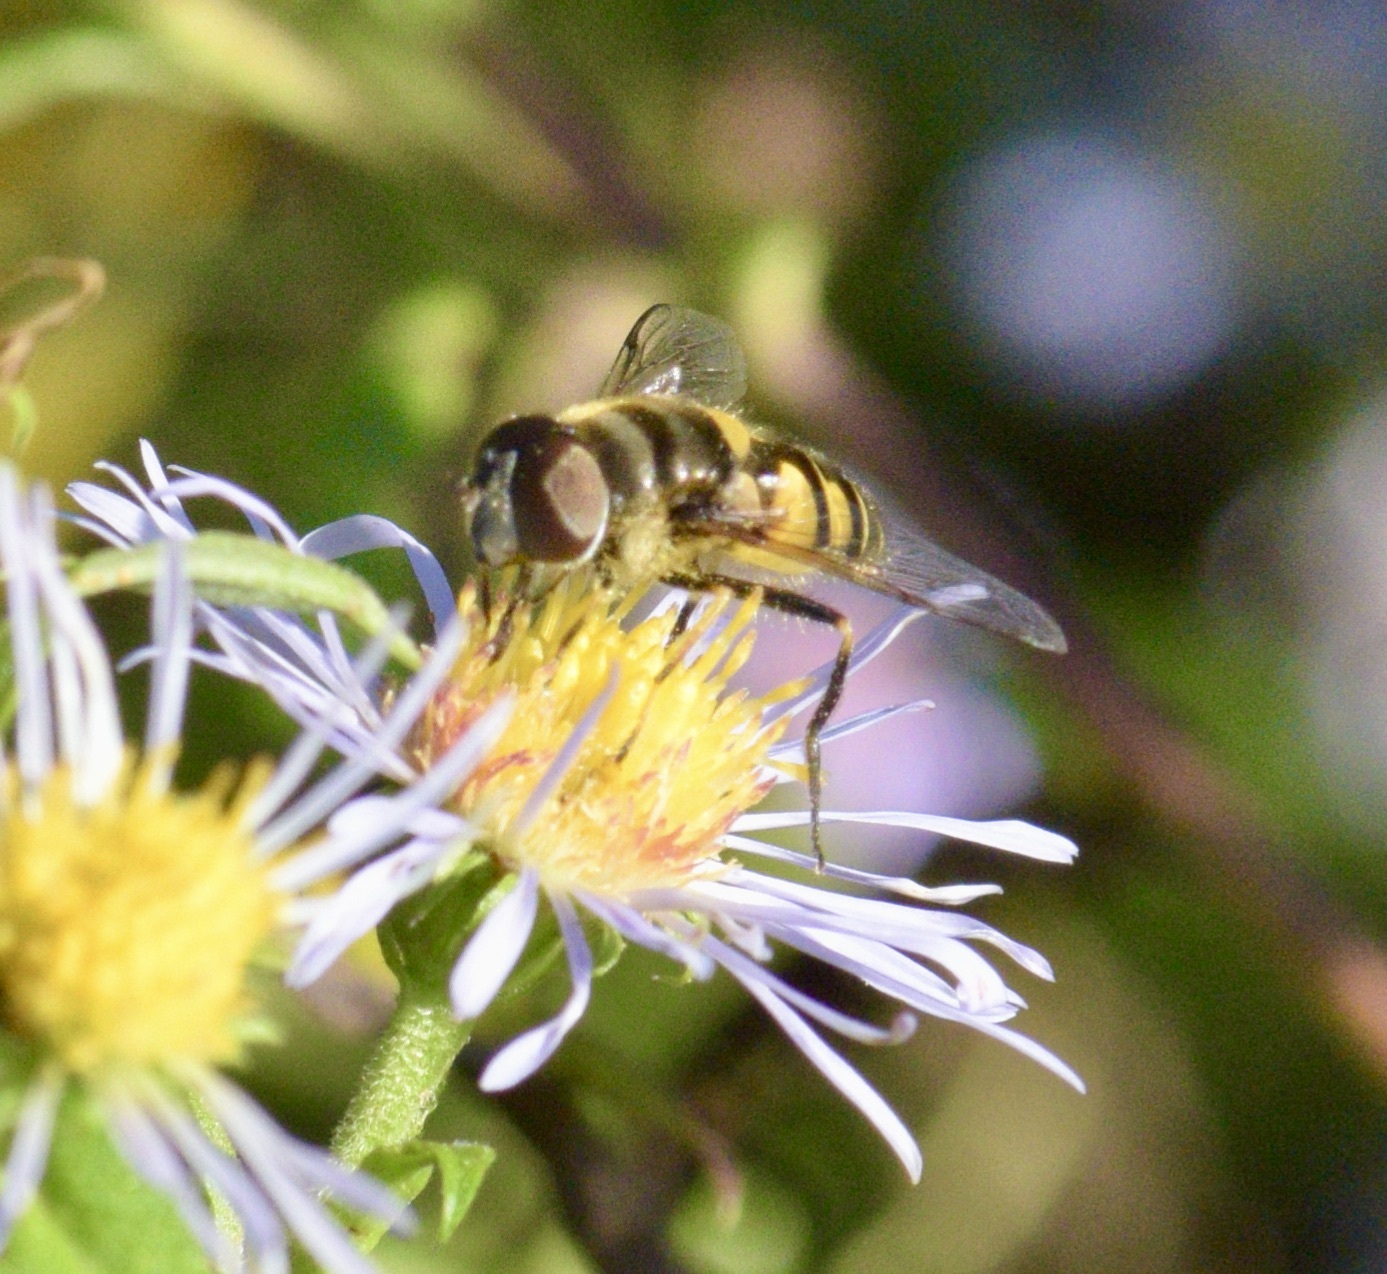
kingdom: Animalia
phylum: Arthropoda
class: Insecta
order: Diptera
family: Syrphidae
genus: Eristalis
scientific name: Eristalis transversa
